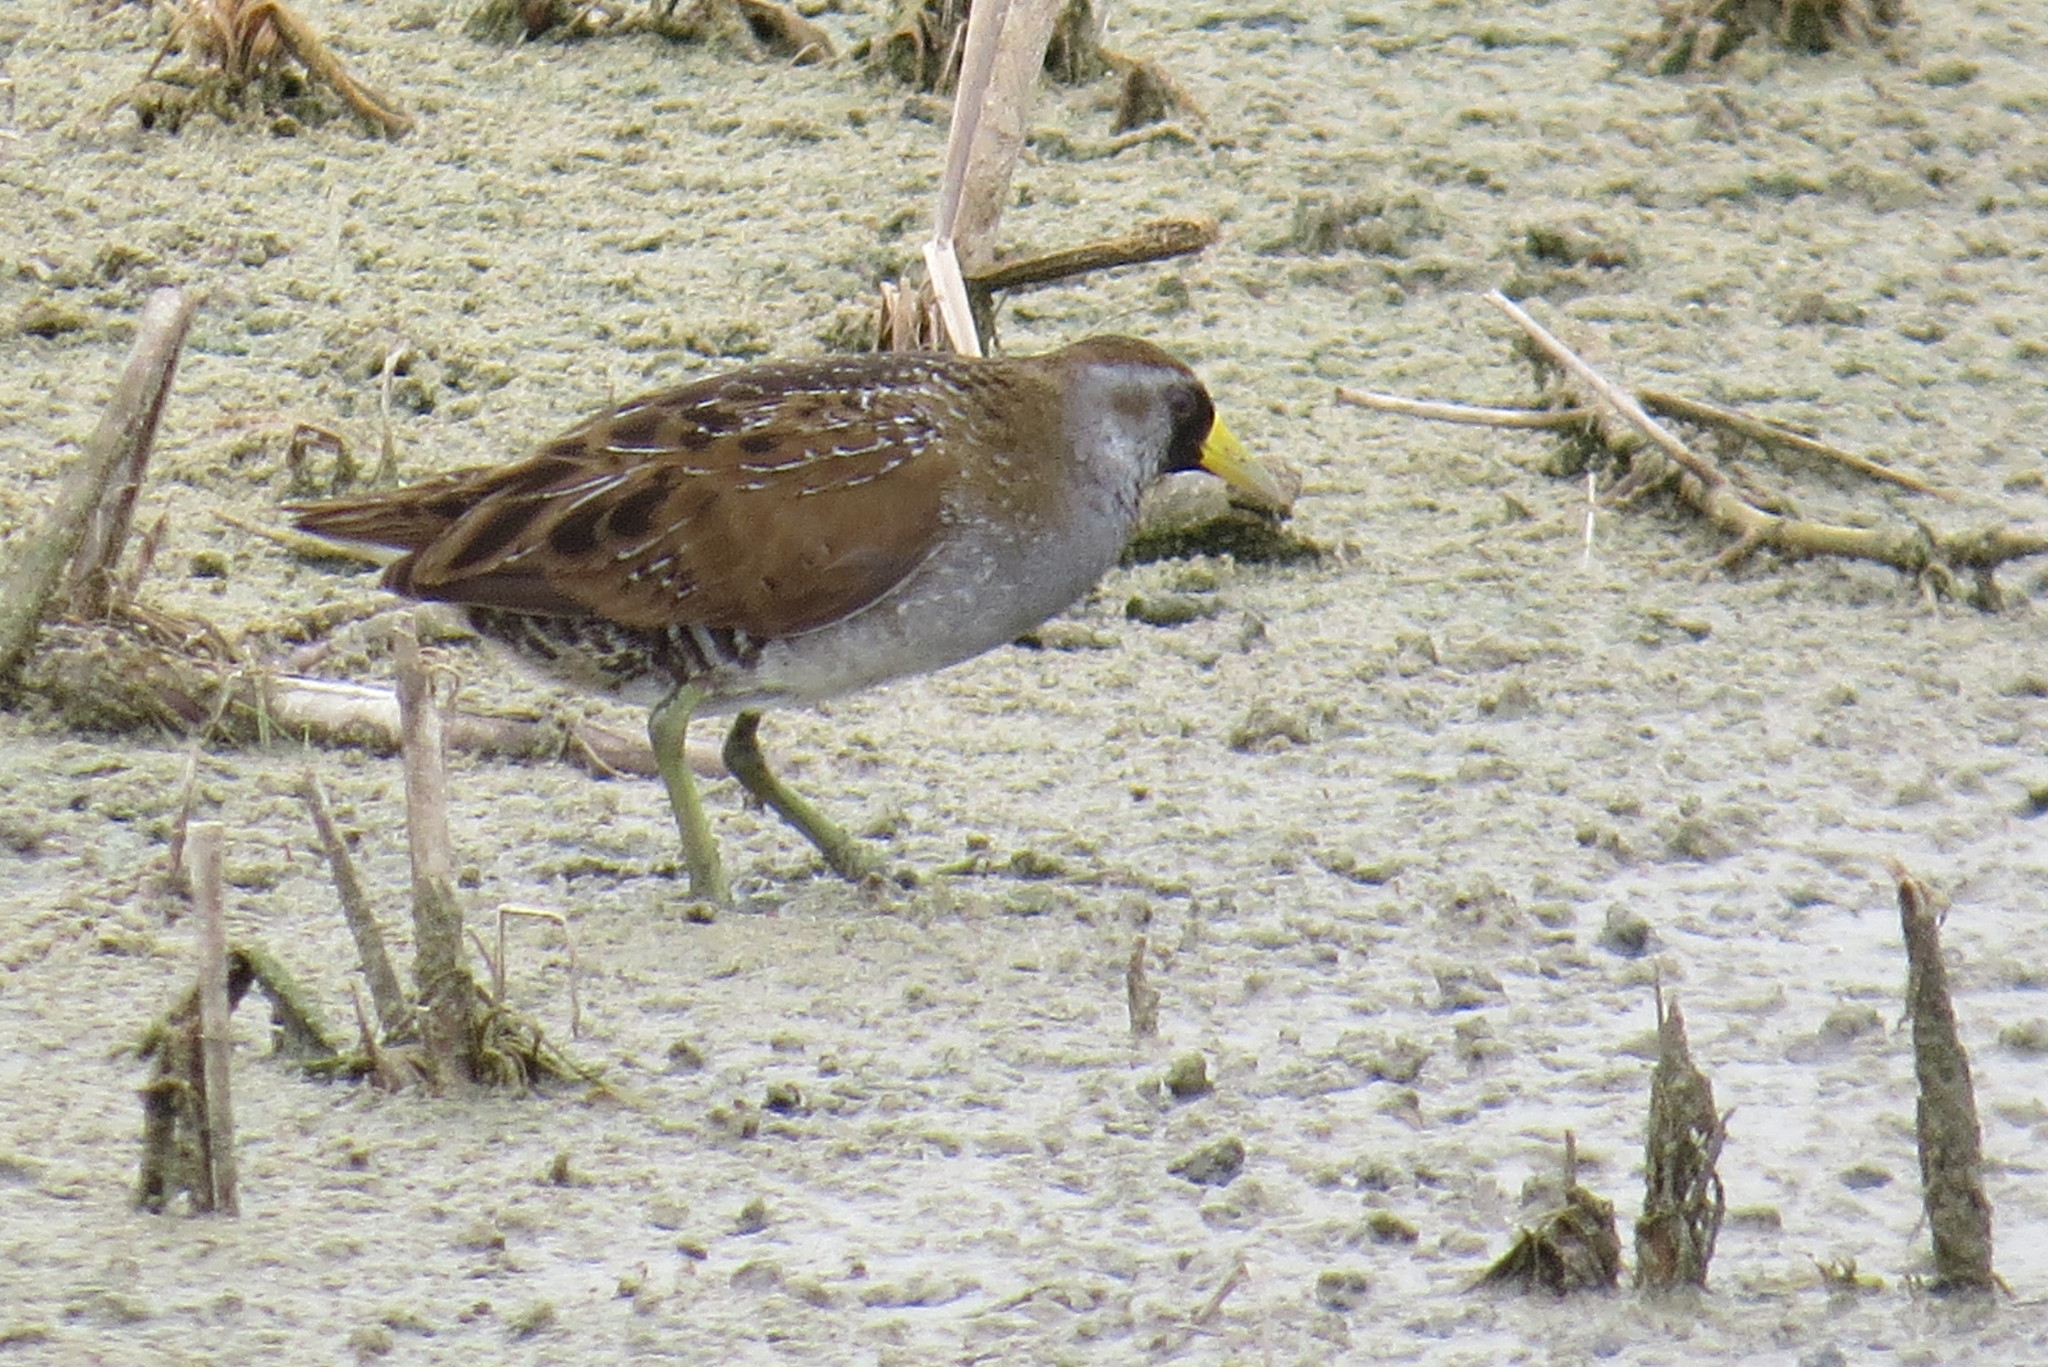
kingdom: Animalia
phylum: Chordata
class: Aves
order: Gruiformes
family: Rallidae
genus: Porzana
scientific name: Porzana carolina
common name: Sora
